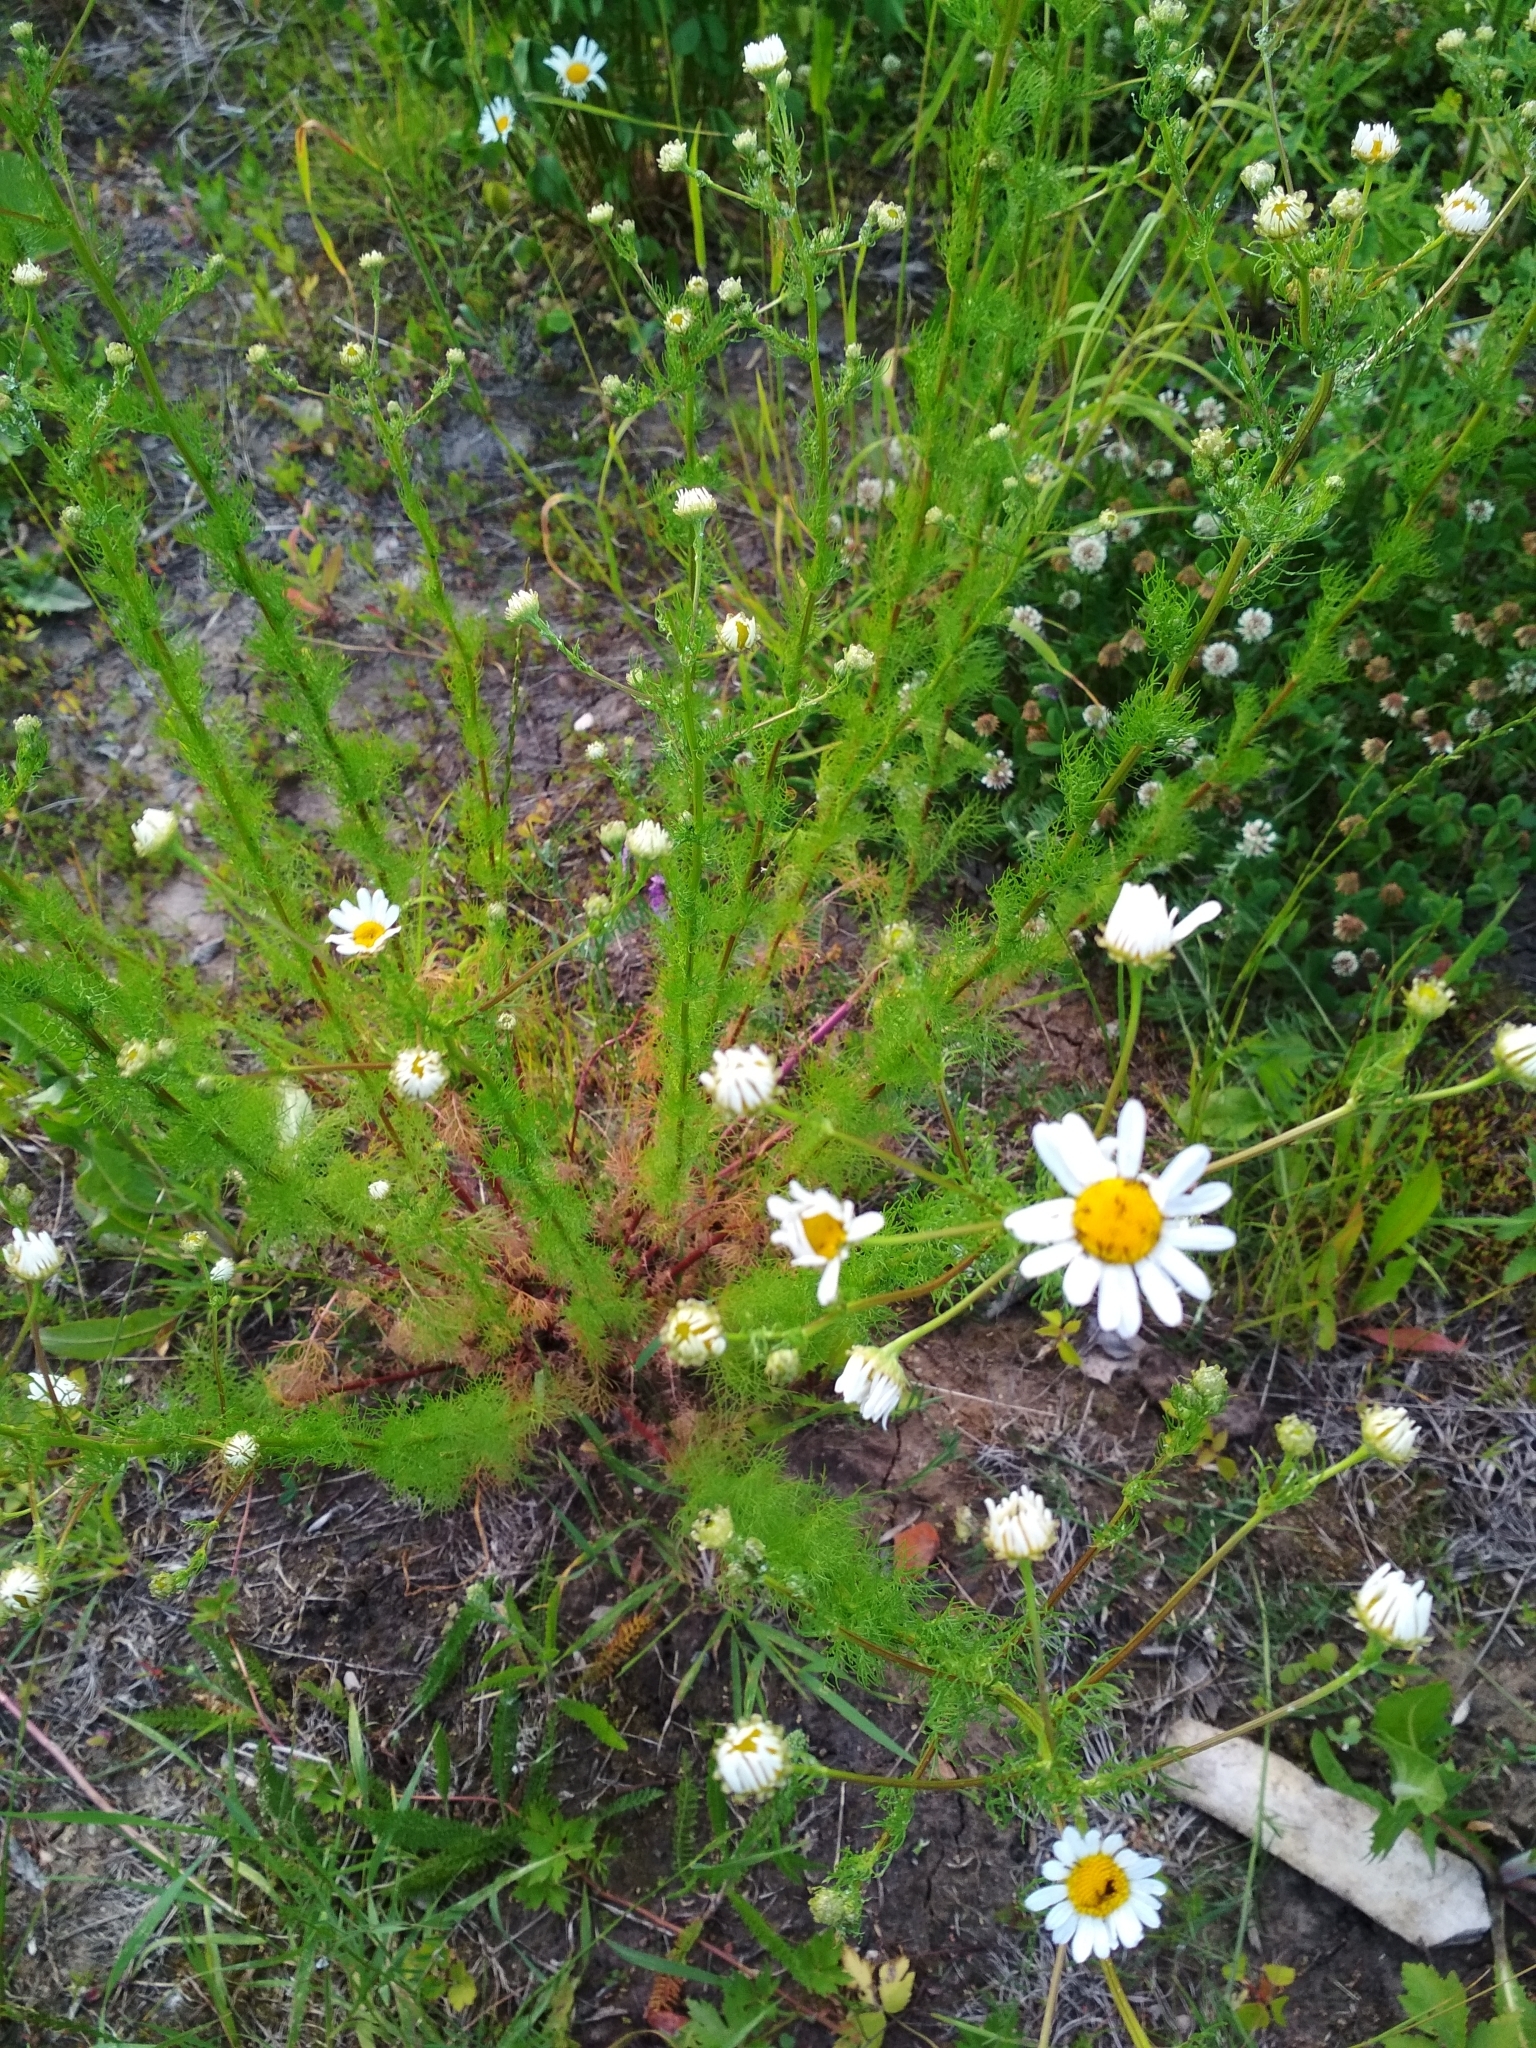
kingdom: Plantae
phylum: Tracheophyta
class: Magnoliopsida
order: Asterales
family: Asteraceae
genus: Tripleurospermum
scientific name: Tripleurospermum inodorum
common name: Scentless mayweed
